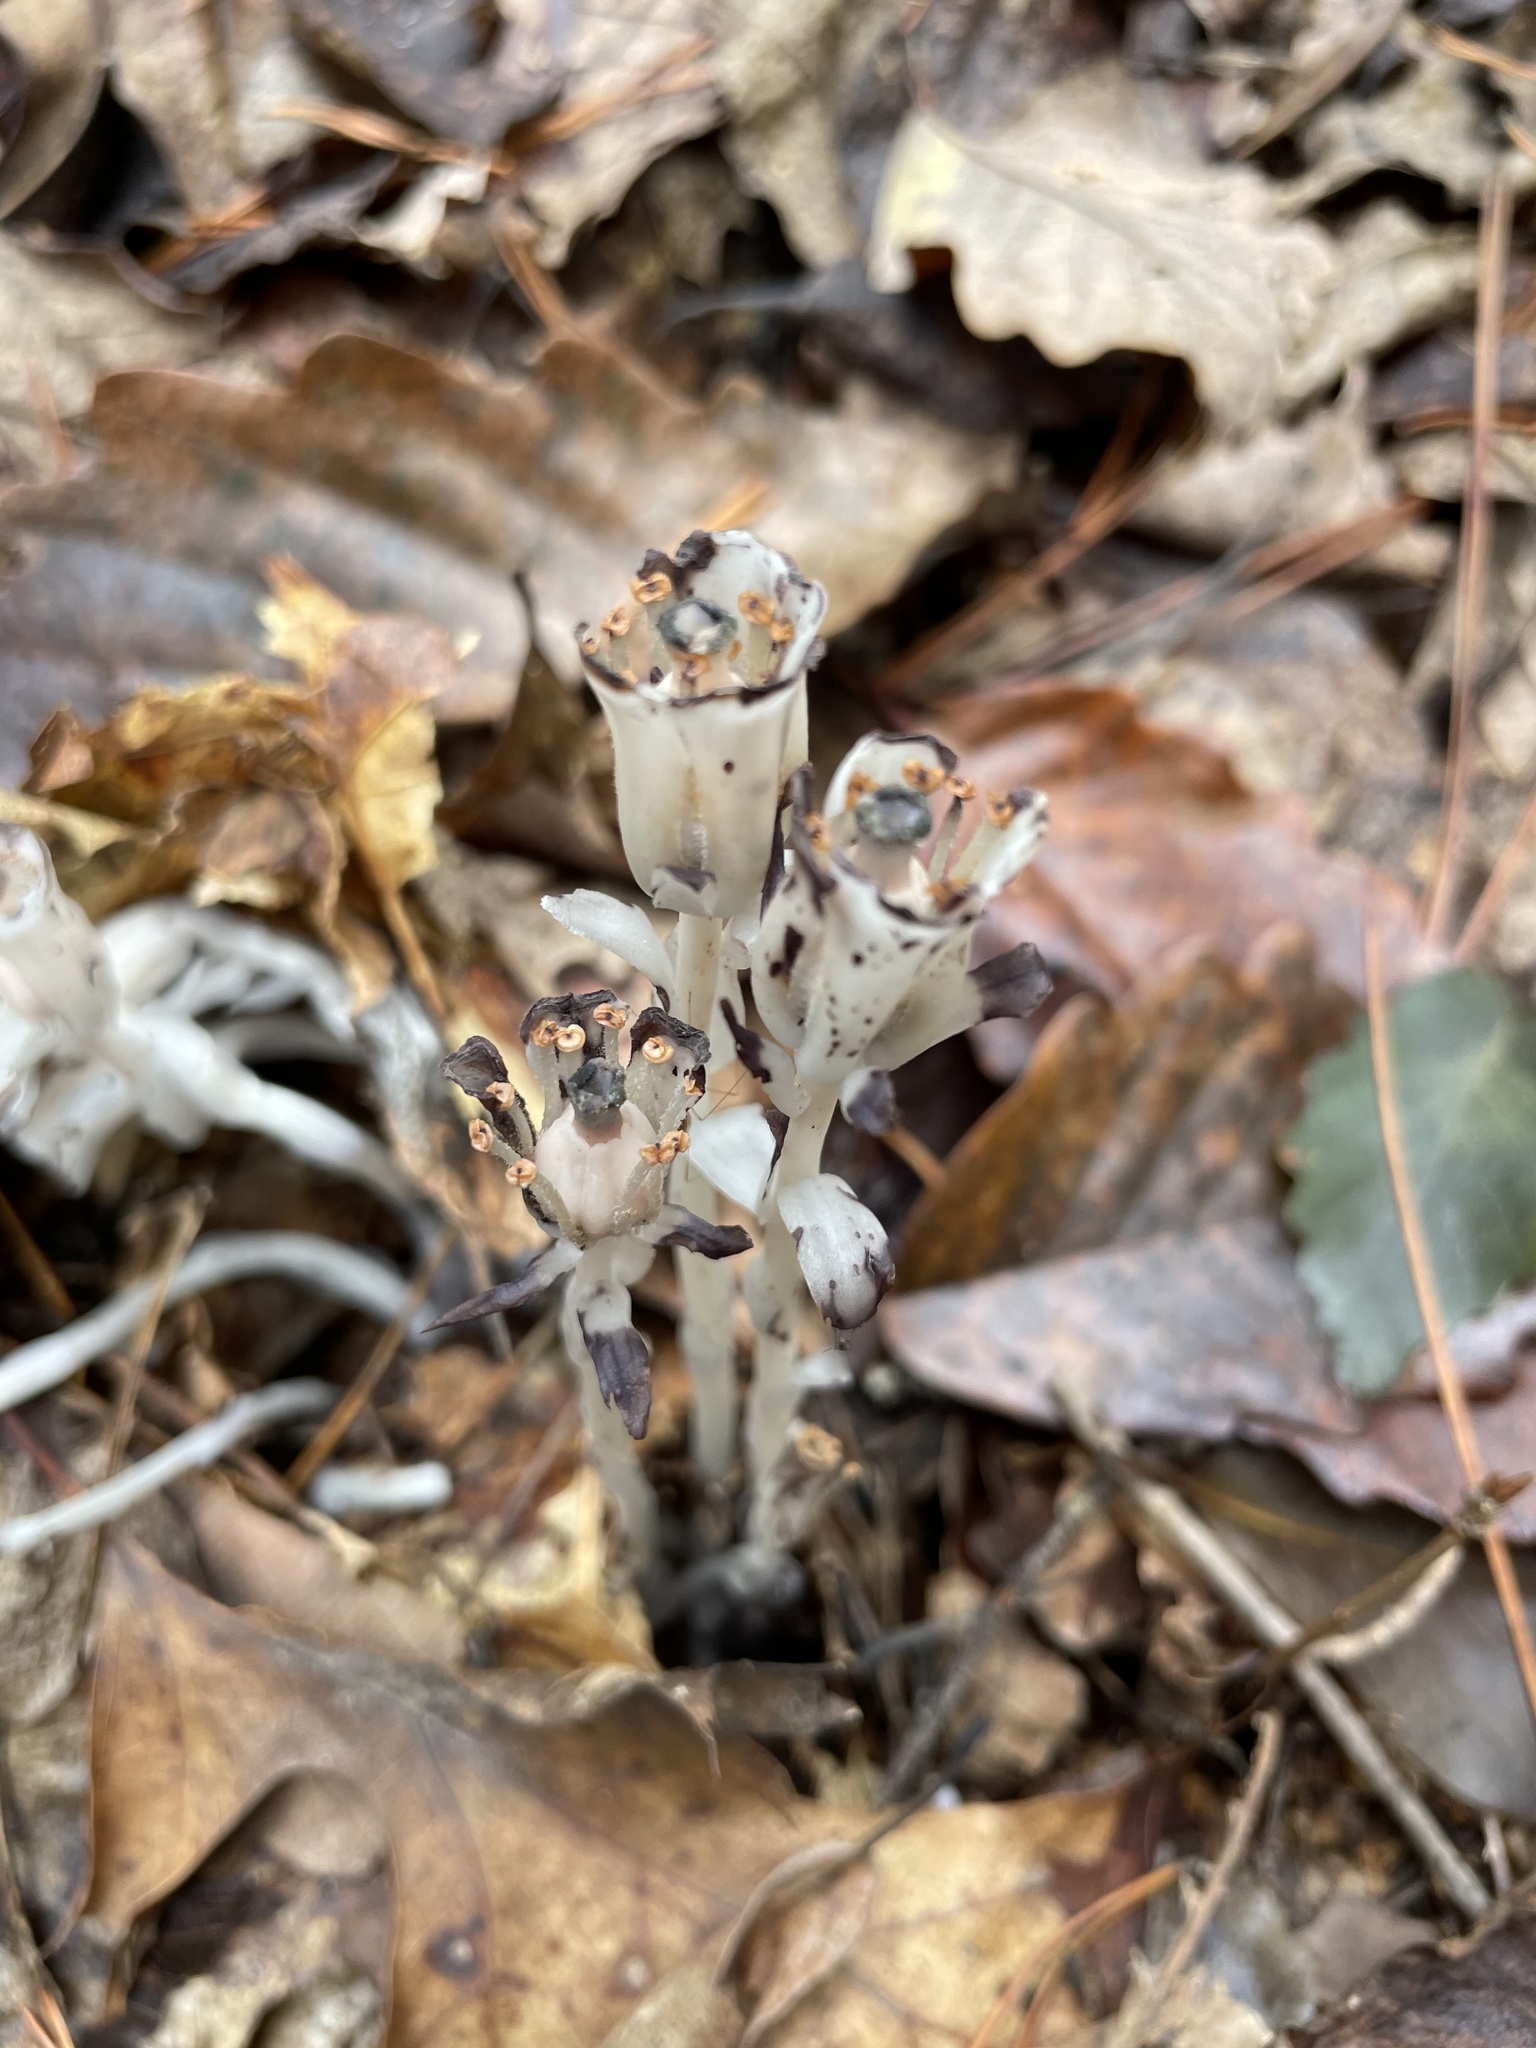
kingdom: Plantae
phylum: Tracheophyta
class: Magnoliopsida
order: Ericales
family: Ericaceae
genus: Monotropa
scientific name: Monotropa uniflora
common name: Convulsion root
